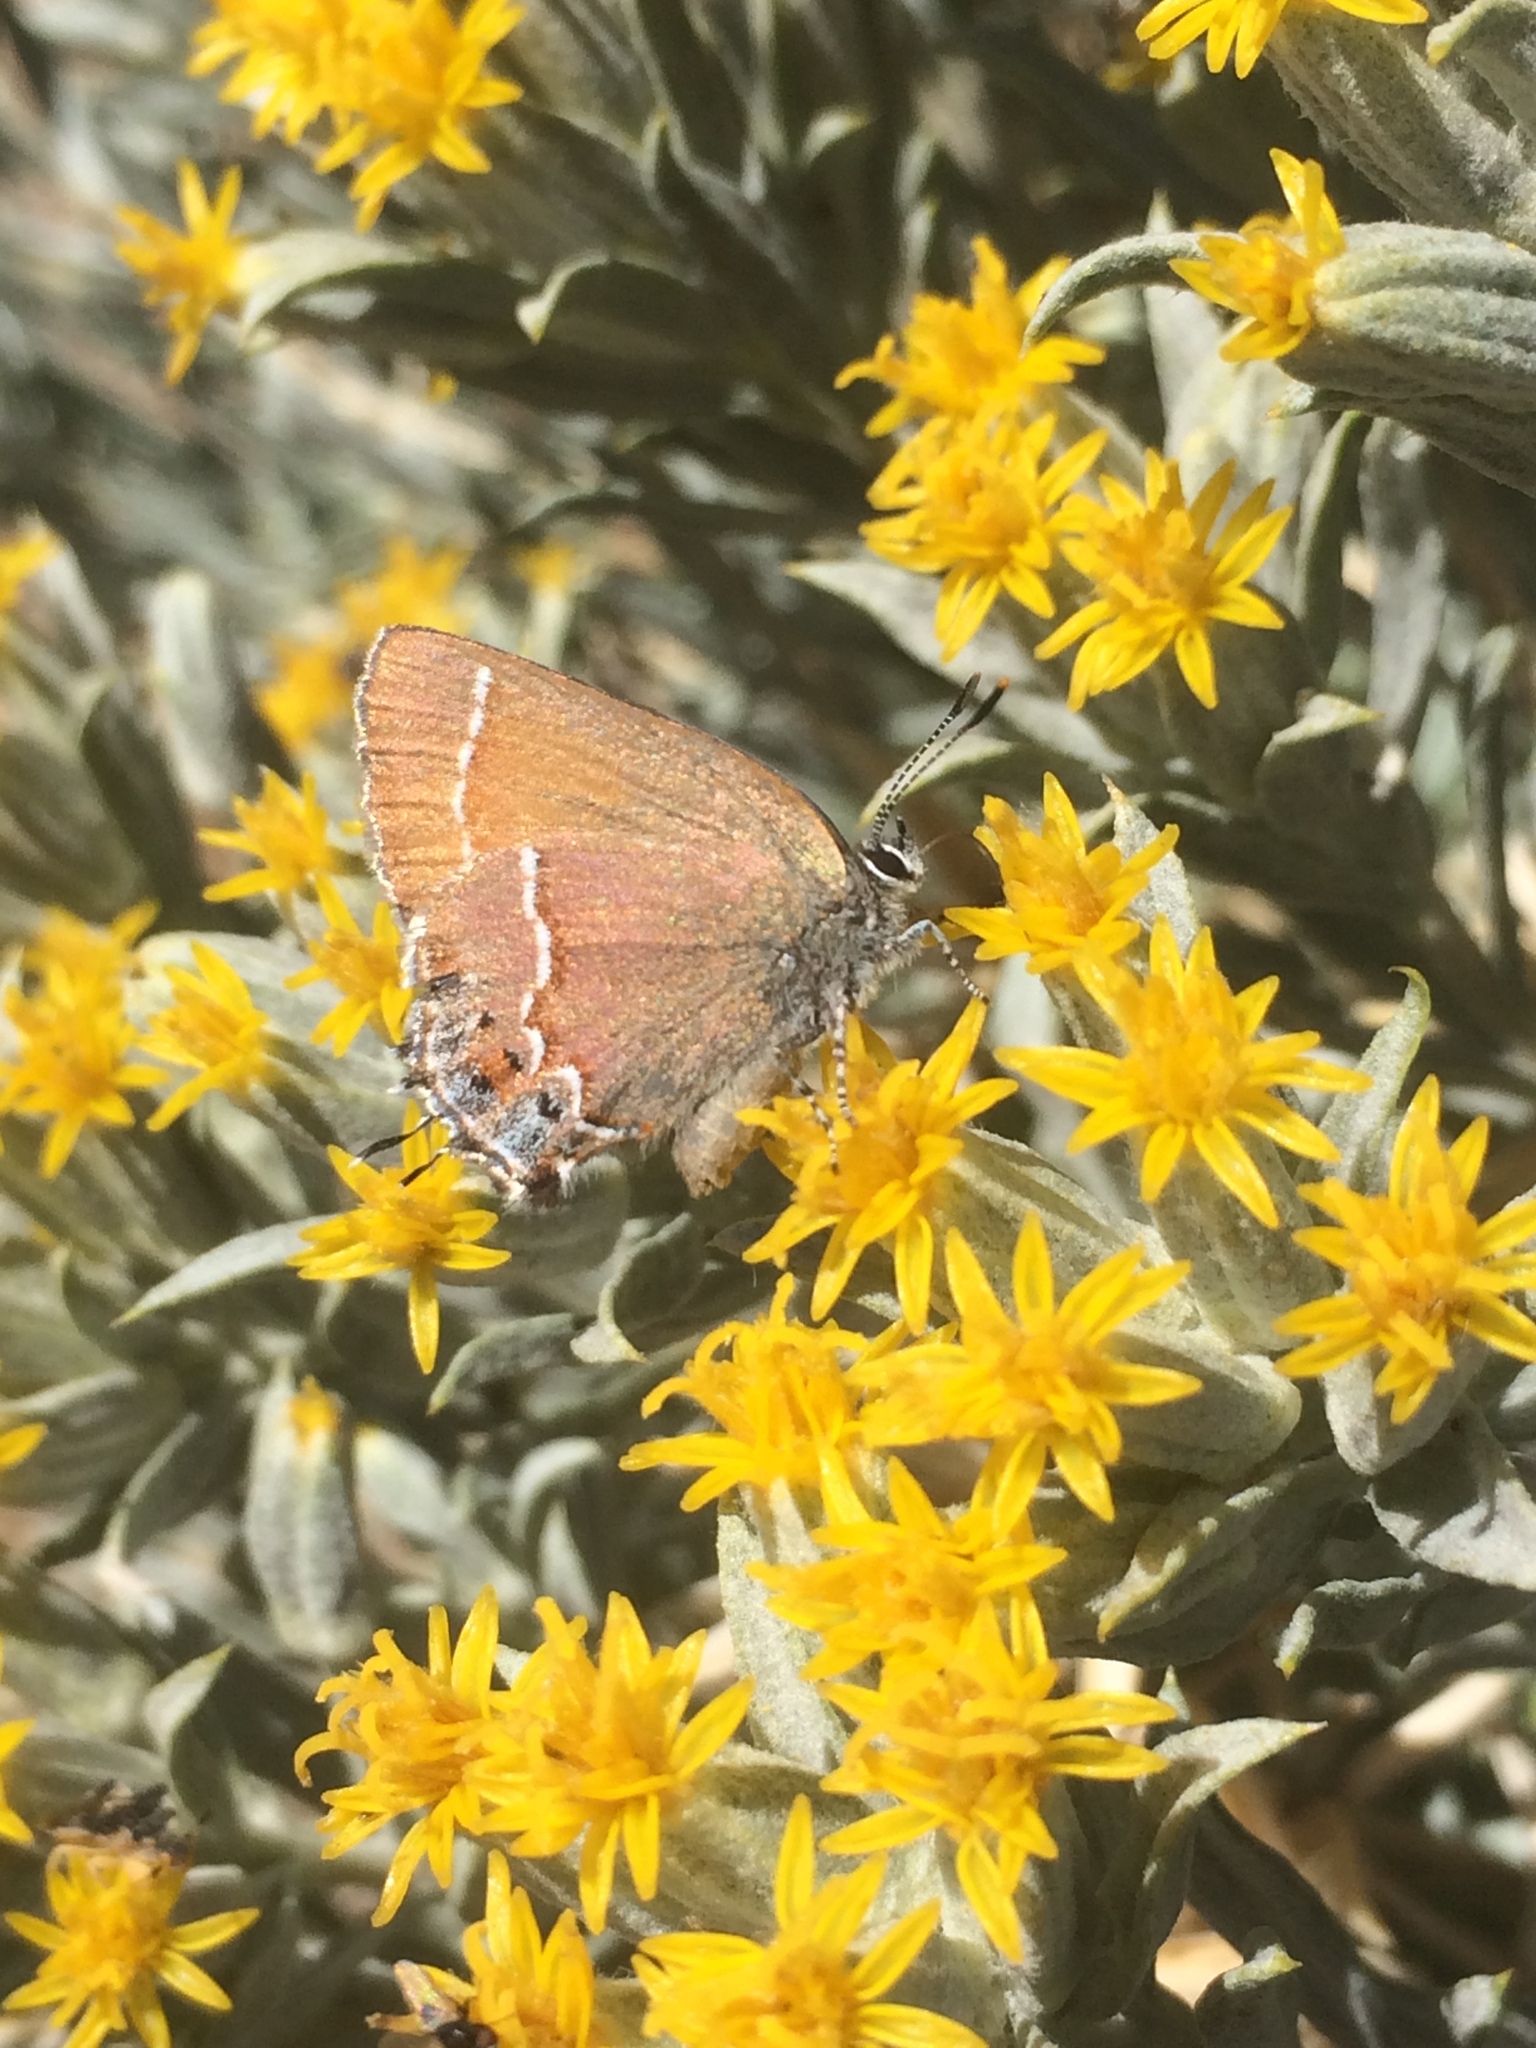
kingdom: Animalia
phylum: Arthropoda
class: Insecta
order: Lepidoptera
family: Lycaenidae
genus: Mitoura
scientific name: Mitoura gryneus
